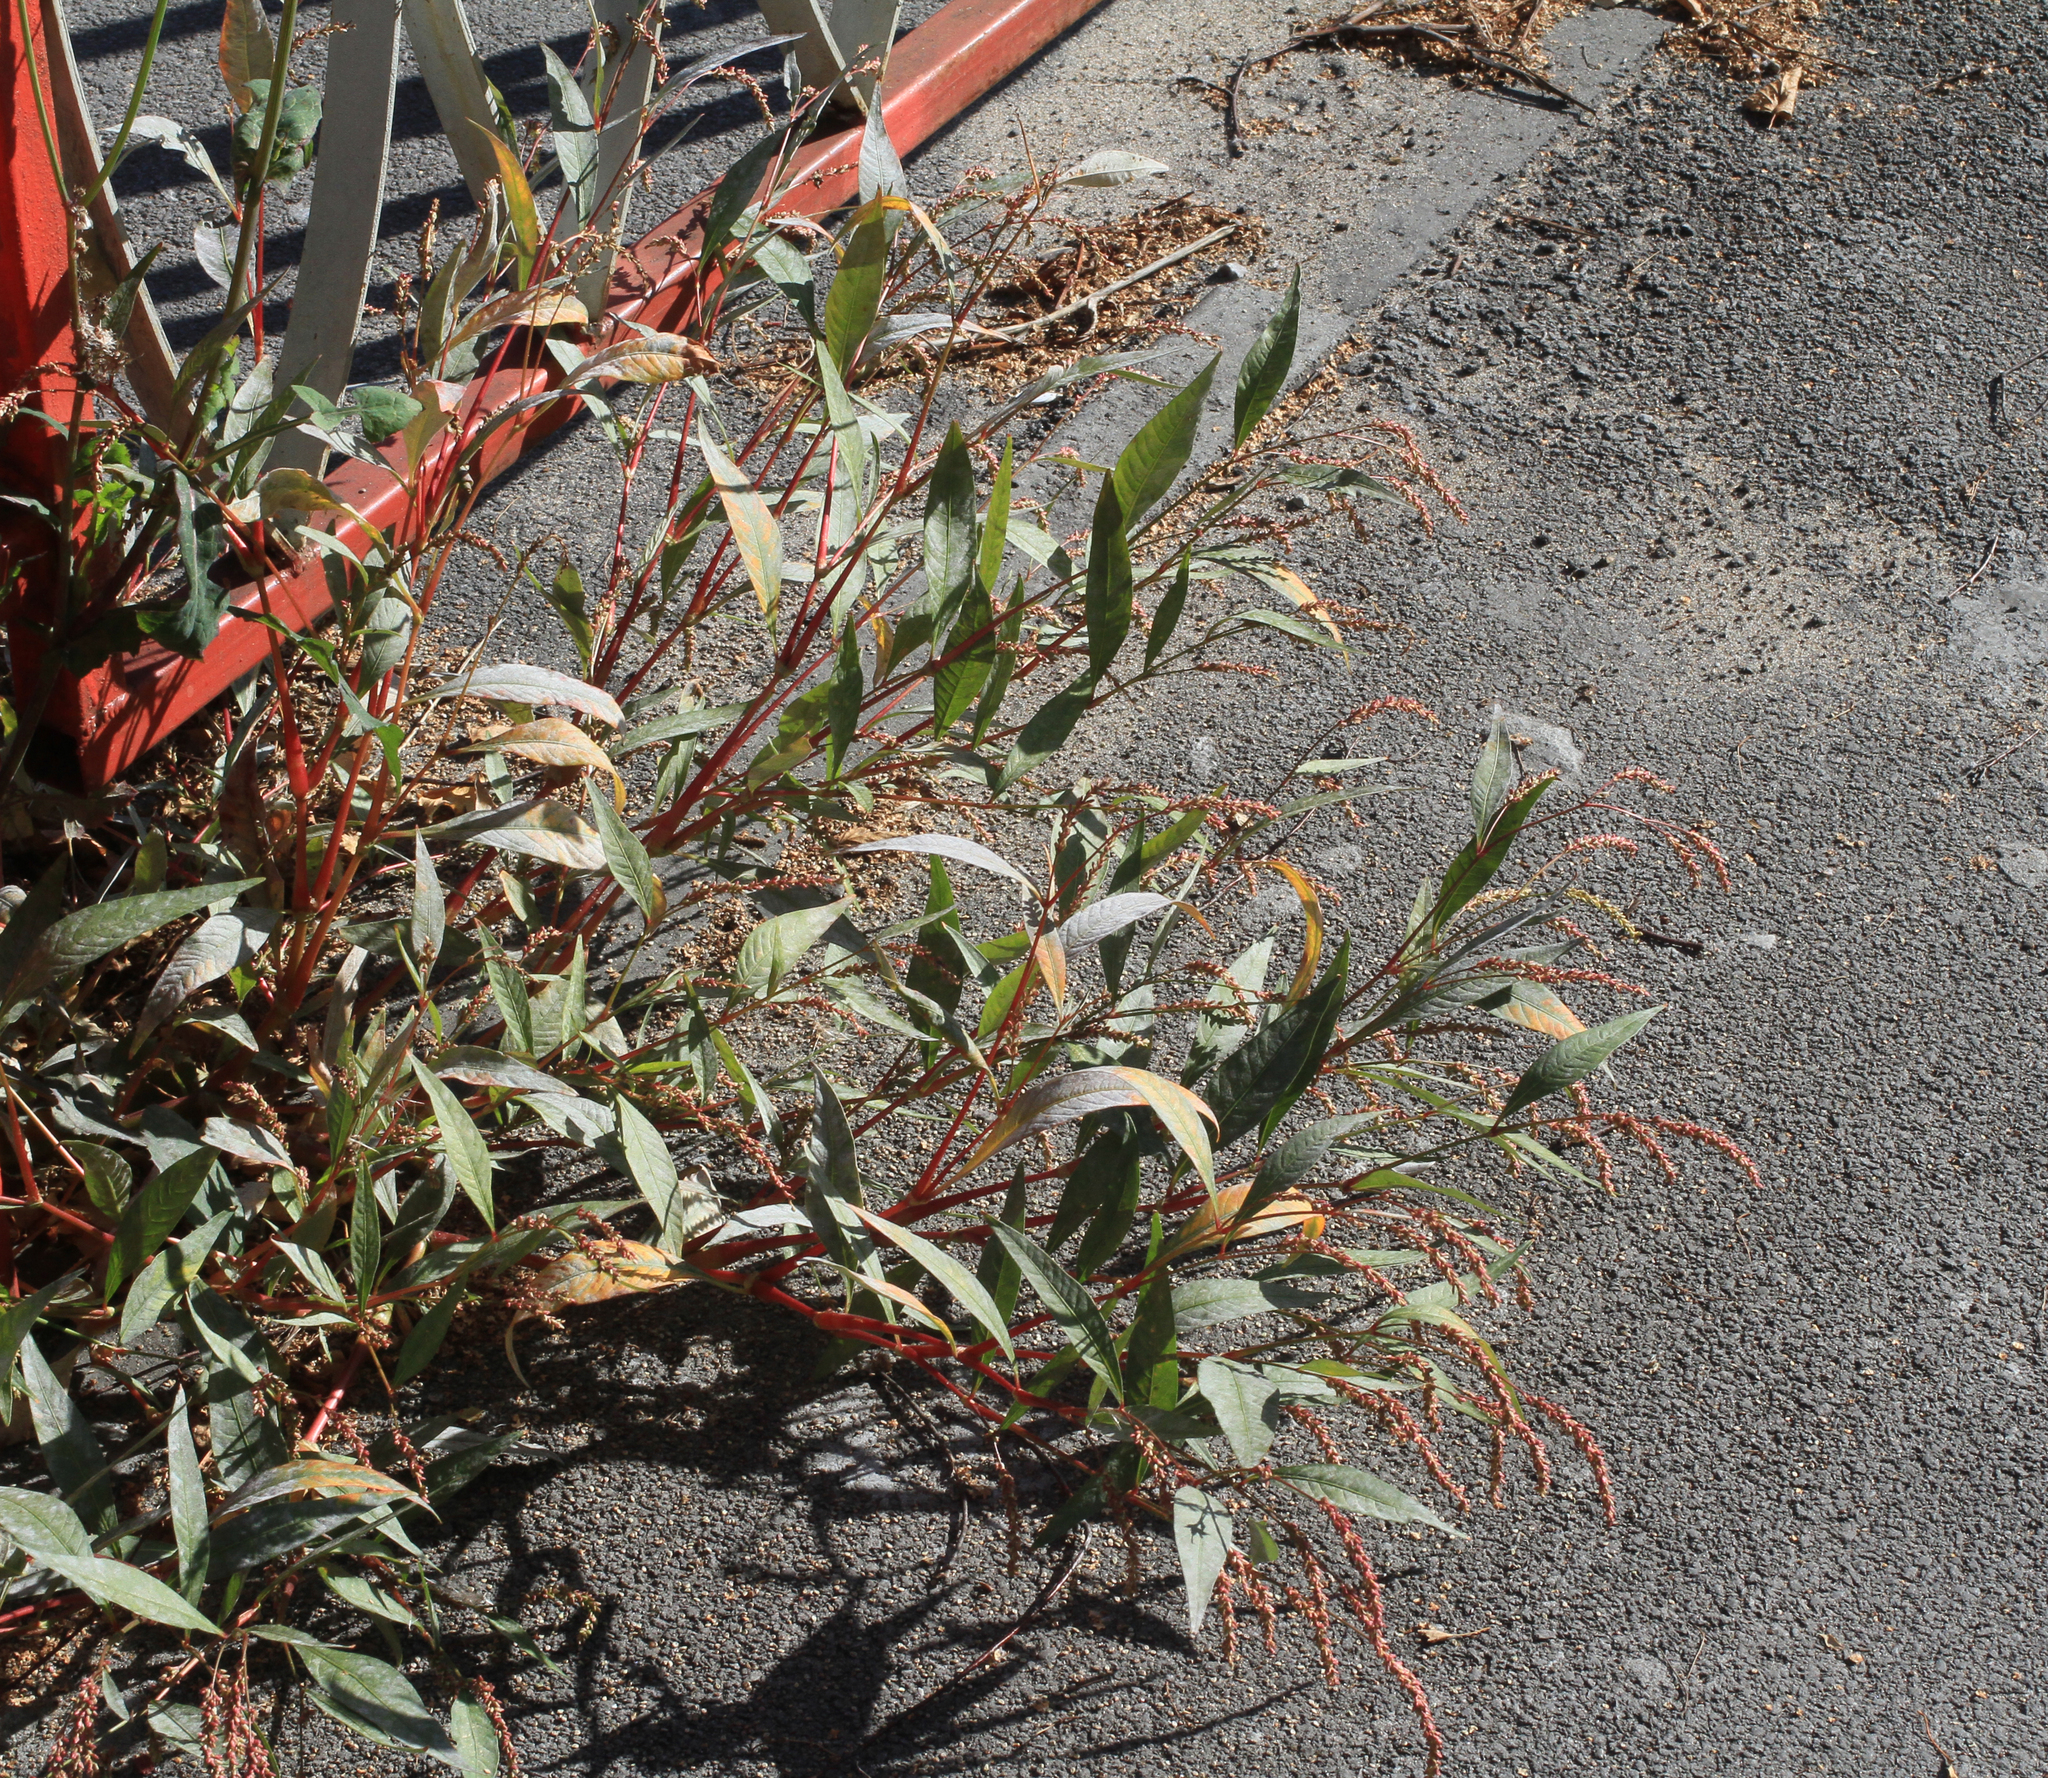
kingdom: Plantae
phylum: Tracheophyta
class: Magnoliopsida
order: Caryophyllales
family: Polygonaceae
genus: Persicaria
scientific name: Persicaria lapathifolia
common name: Curlytop knotweed
